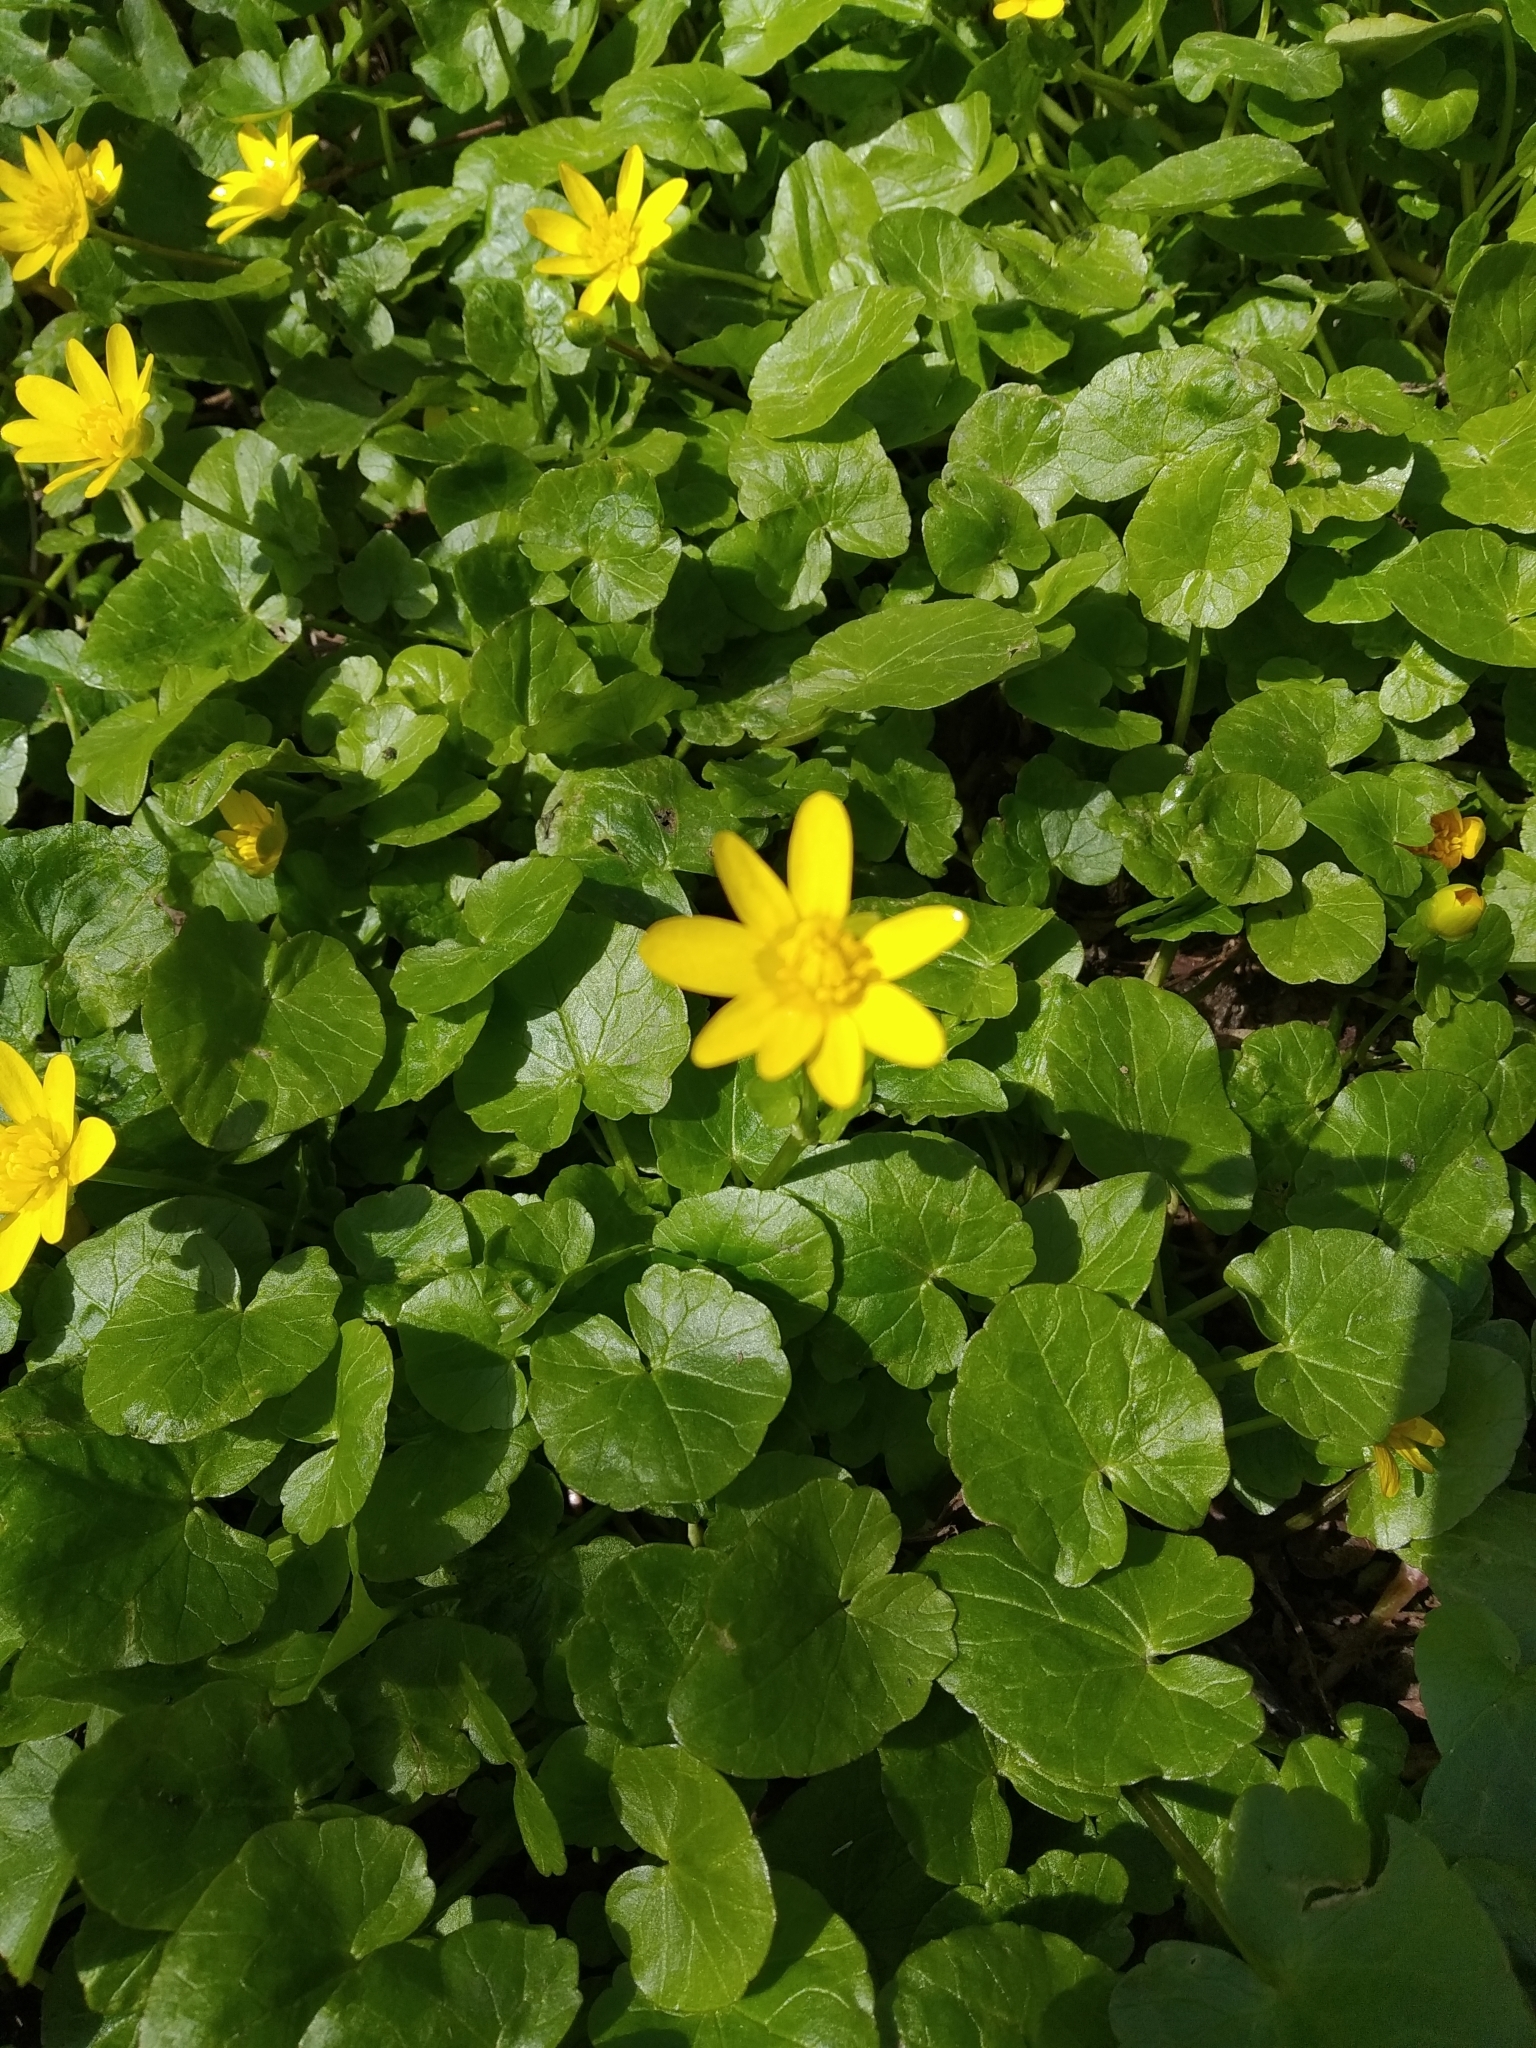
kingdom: Plantae
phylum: Tracheophyta
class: Magnoliopsida
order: Ranunculales
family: Ranunculaceae
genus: Ficaria
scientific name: Ficaria verna
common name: Lesser celandine
